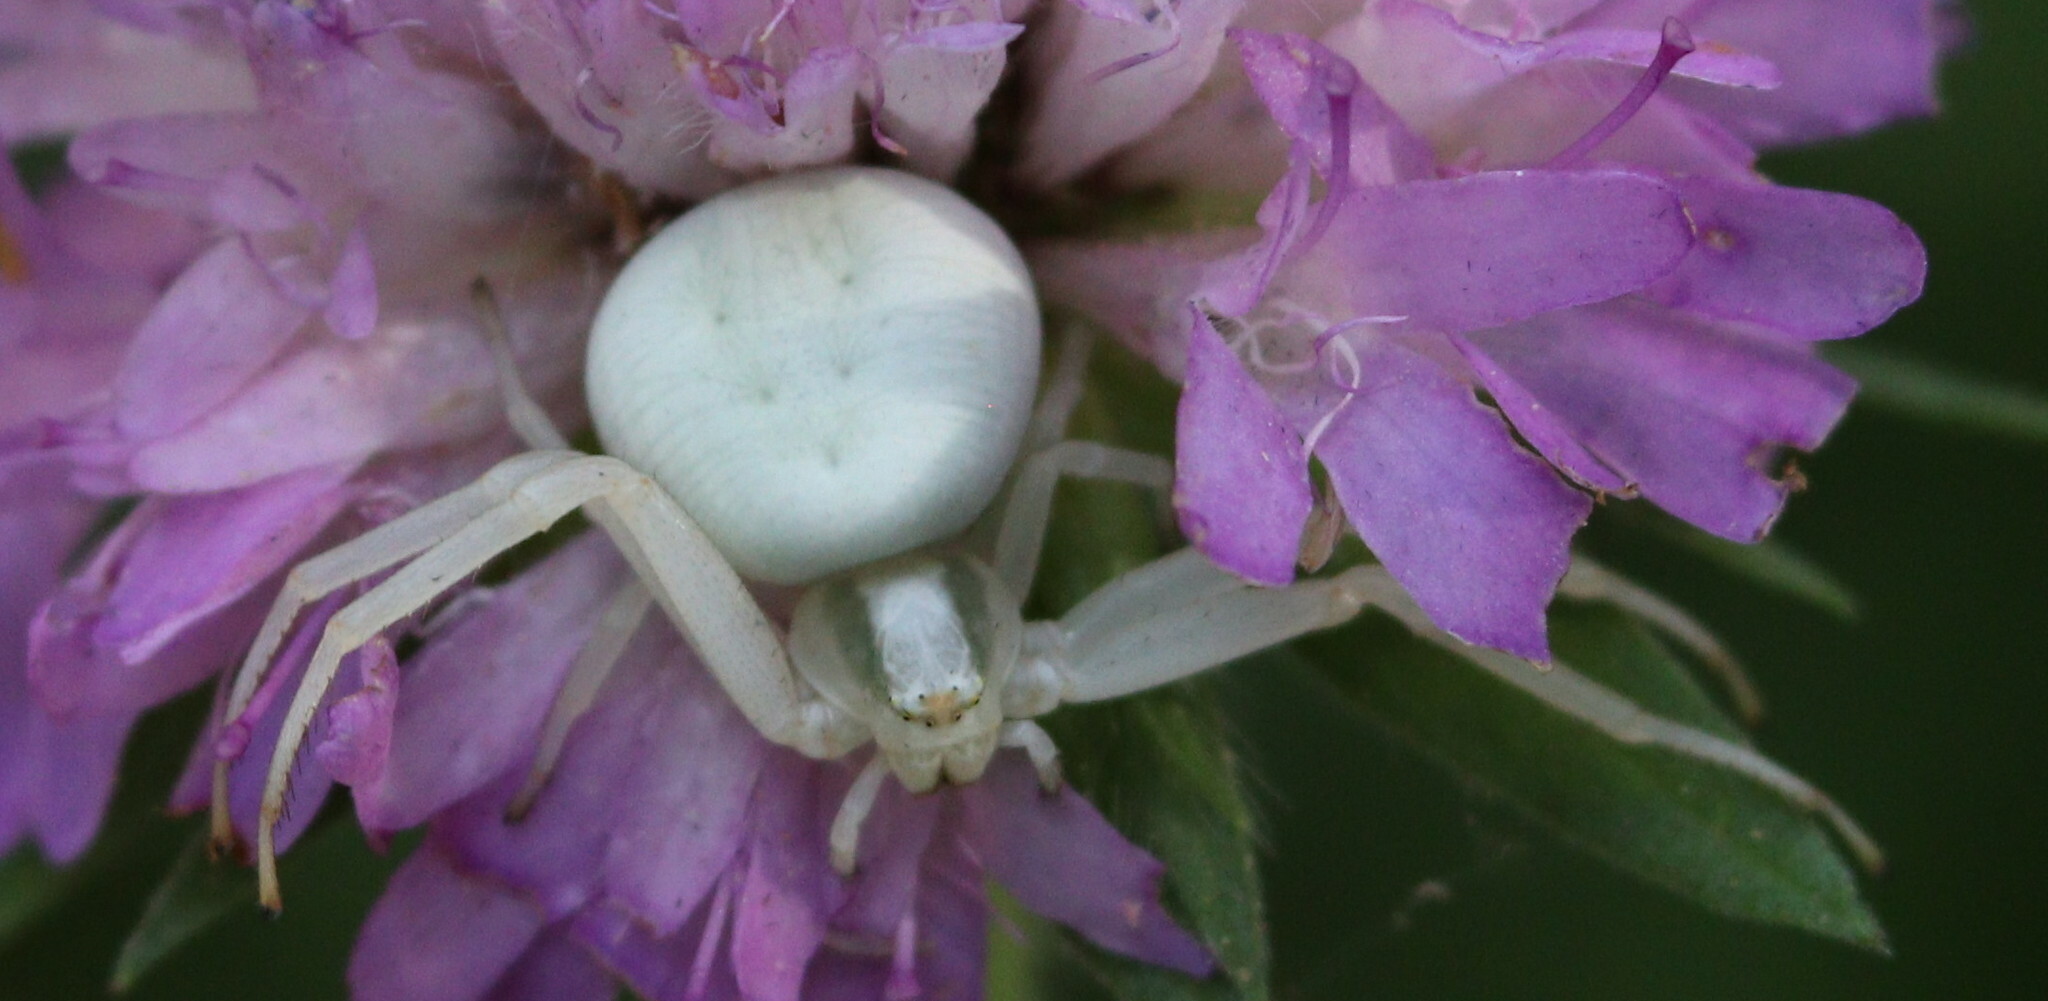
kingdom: Animalia
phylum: Arthropoda
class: Arachnida
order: Araneae
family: Thomisidae
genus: Misumena
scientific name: Misumena vatia
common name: Goldenrod crab spider
